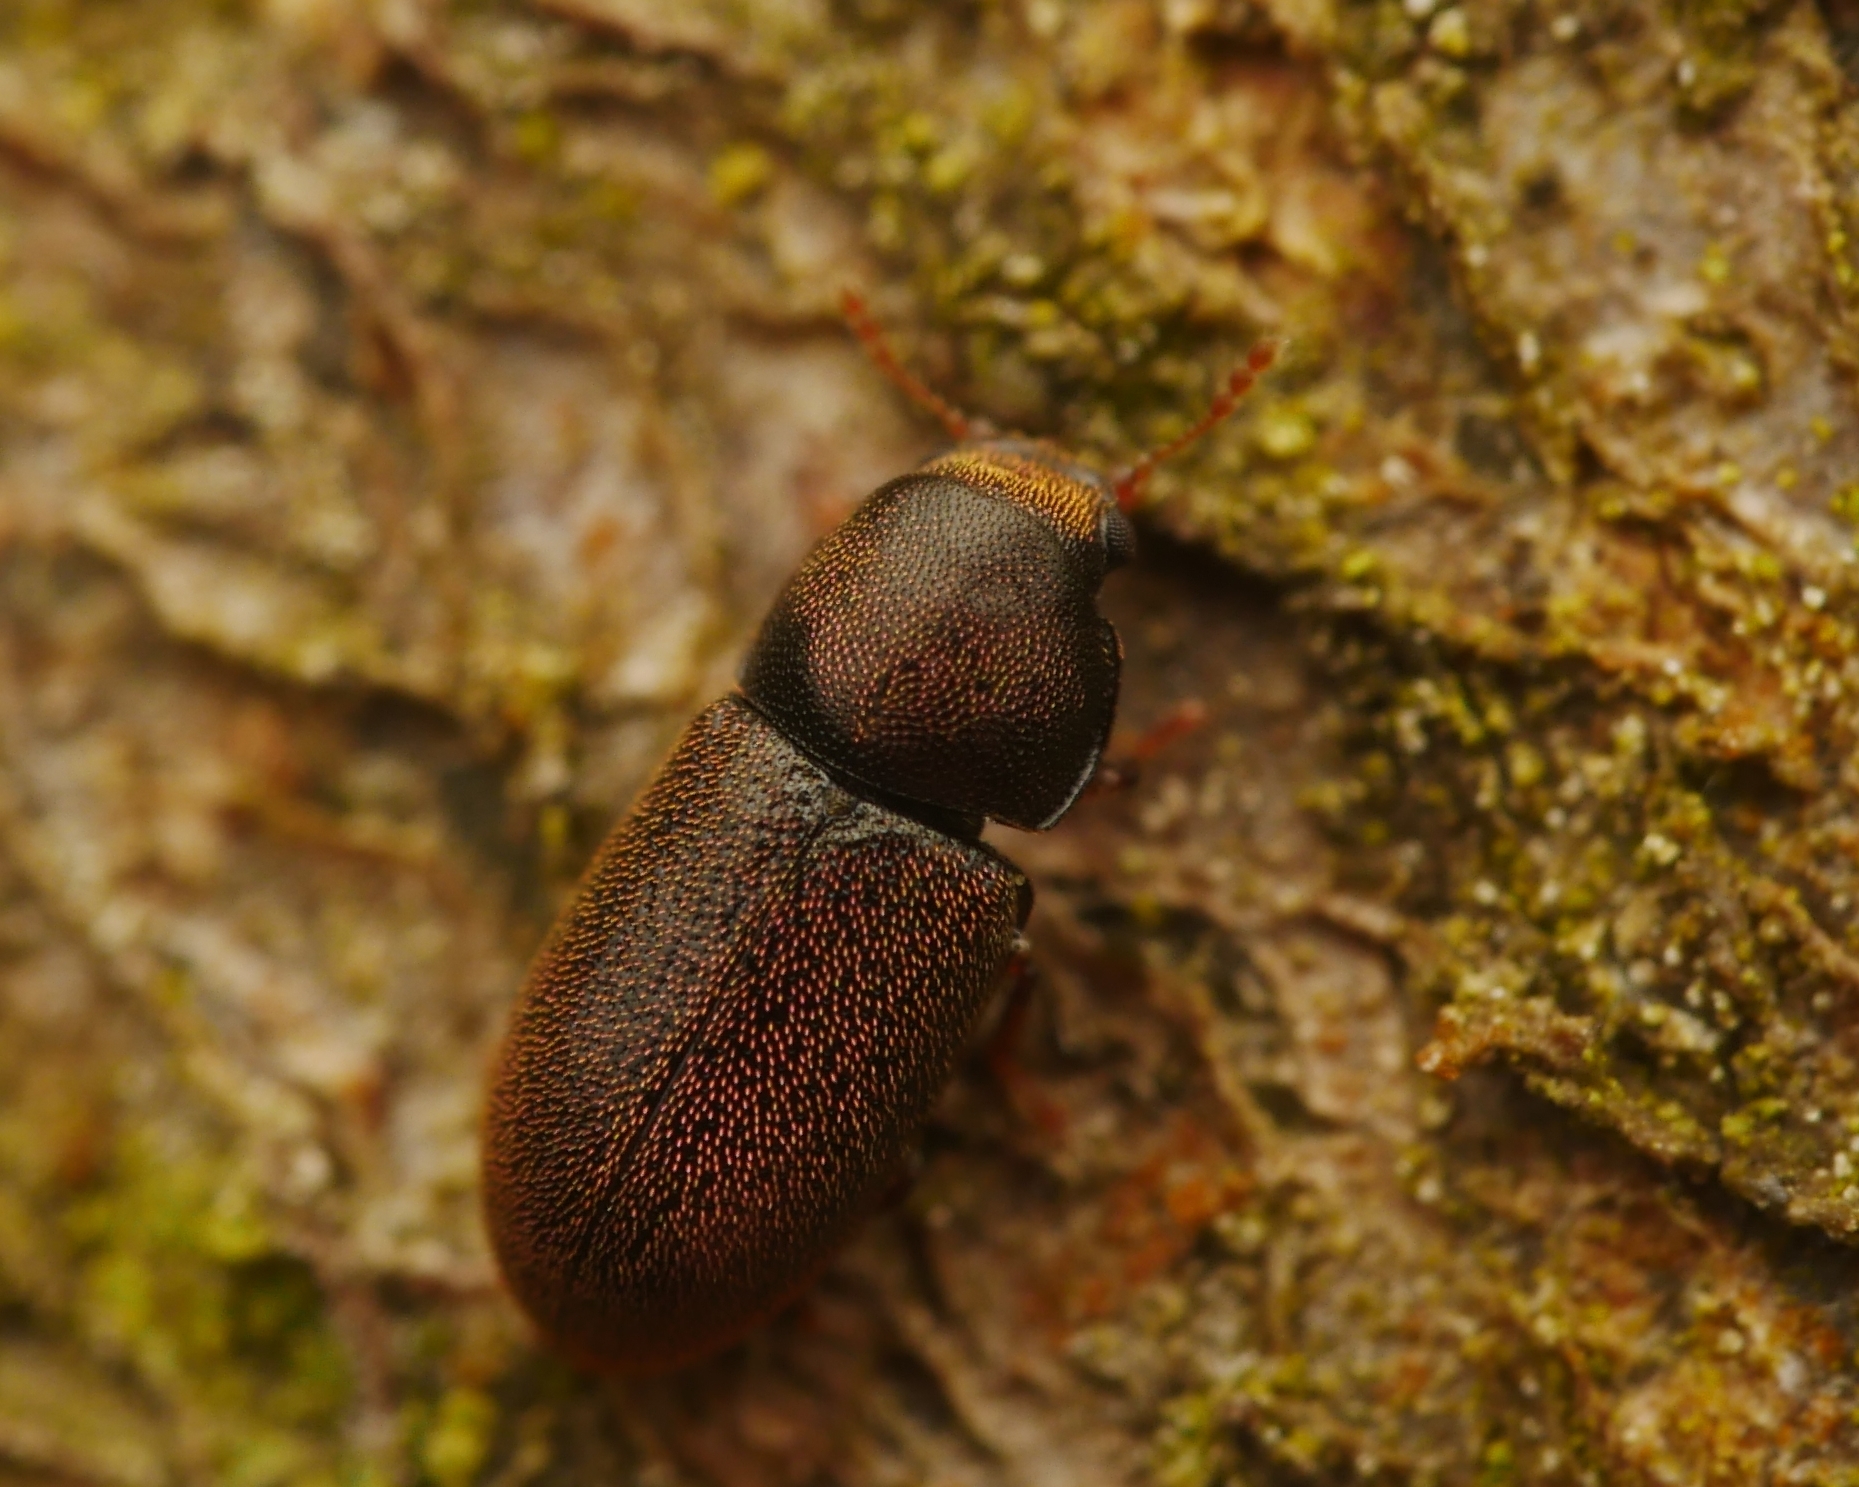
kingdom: Animalia
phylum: Arthropoda
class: Insecta
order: Coleoptera
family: Ciidae
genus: Cis
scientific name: Cis micans
